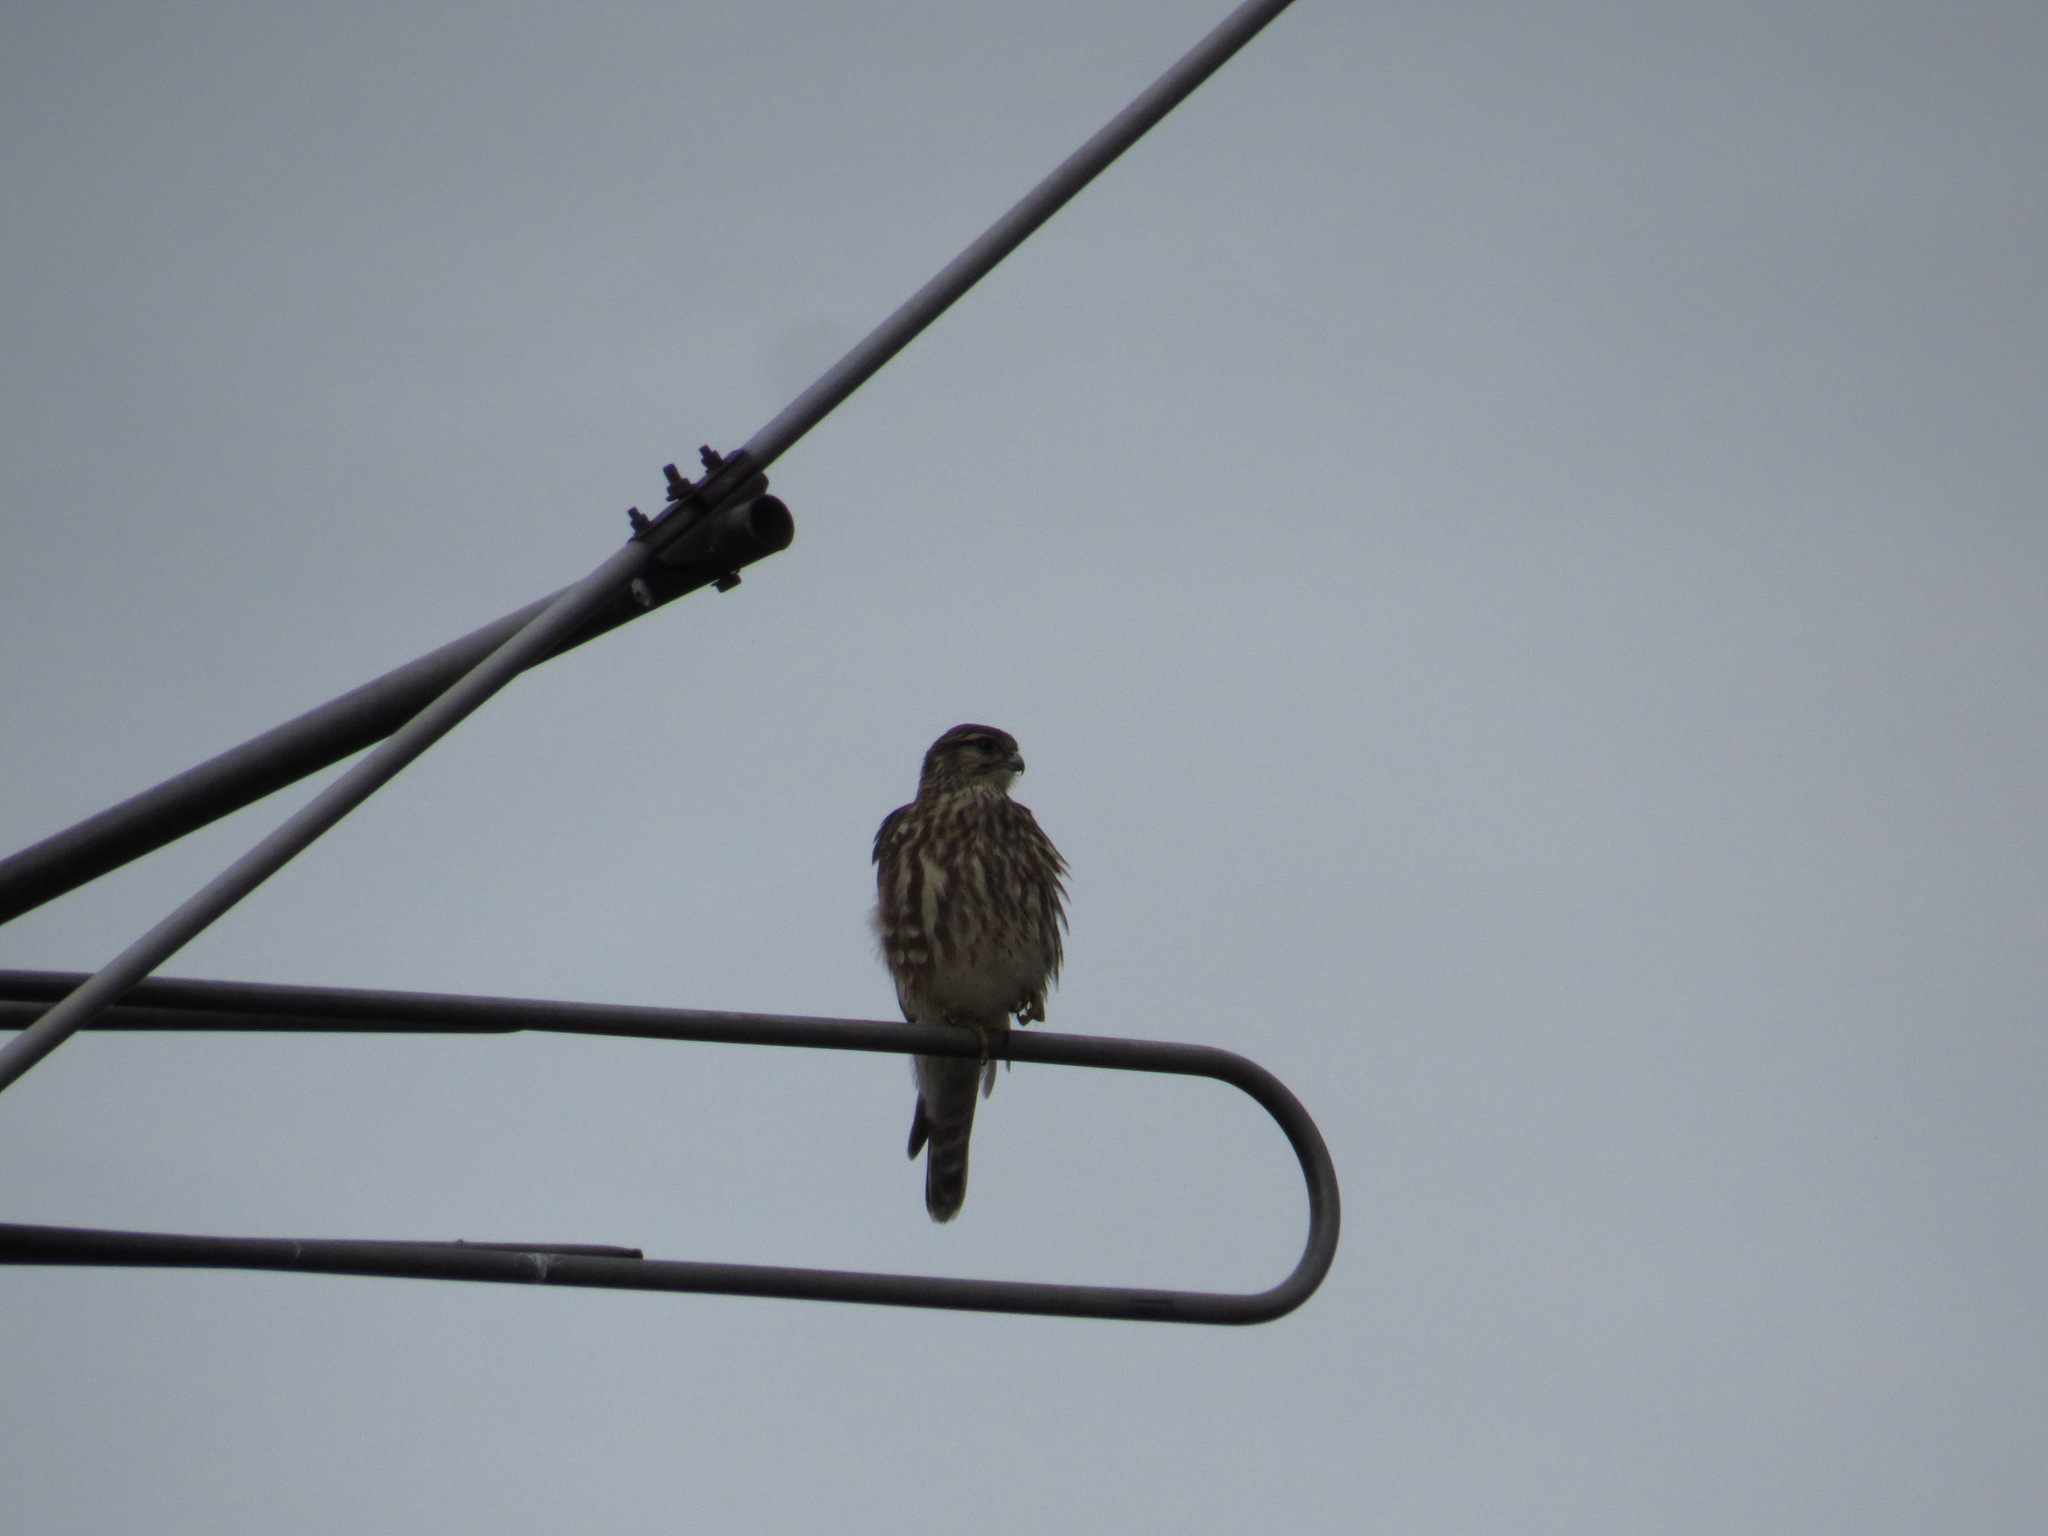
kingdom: Animalia
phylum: Chordata
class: Aves
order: Falconiformes
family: Falconidae
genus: Falco
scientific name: Falco columbarius
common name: Merlin
